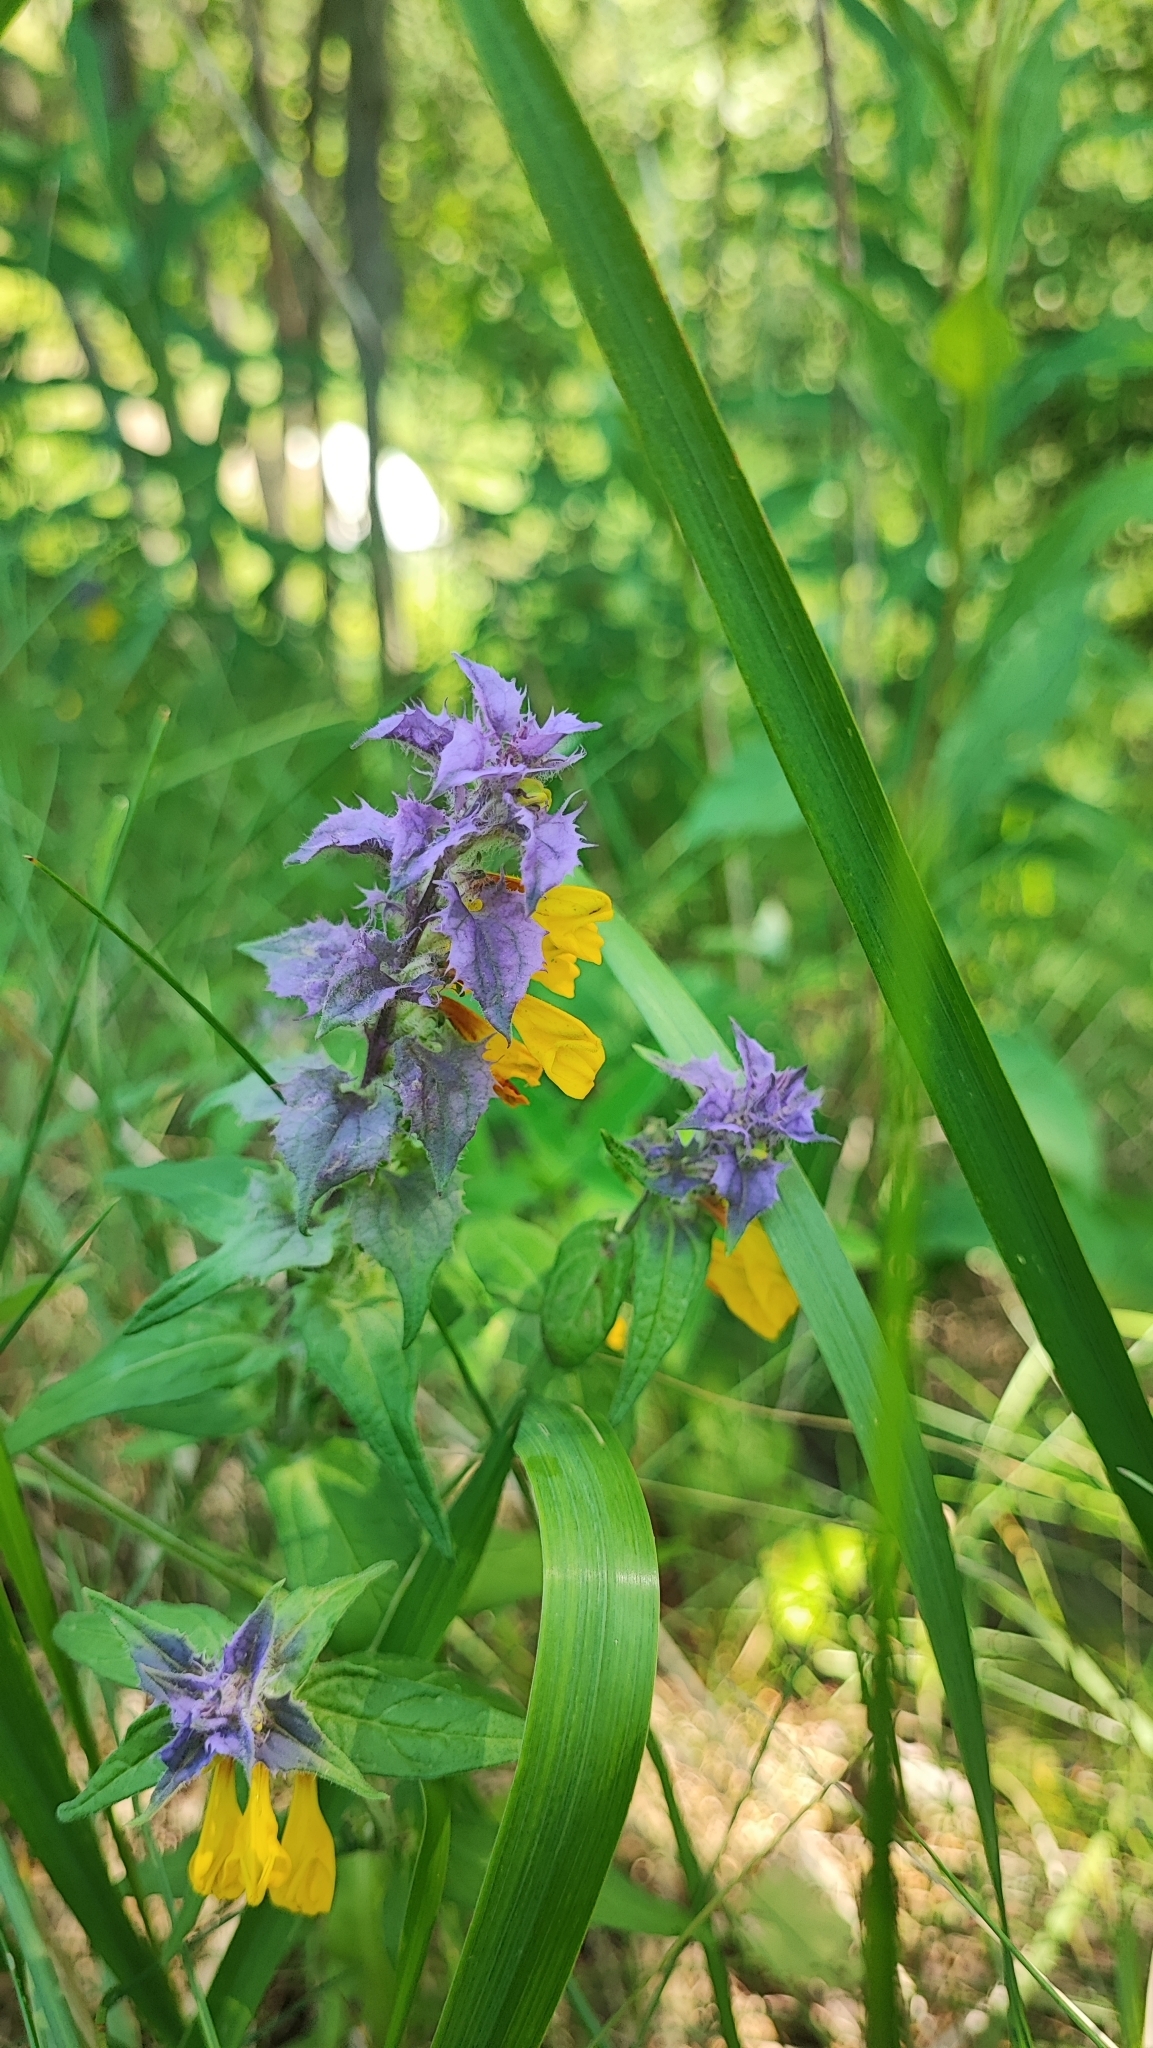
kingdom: Plantae
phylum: Tracheophyta
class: Magnoliopsida
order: Lamiales
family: Orobanchaceae
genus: Melampyrum
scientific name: Melampyrum nemorosum
